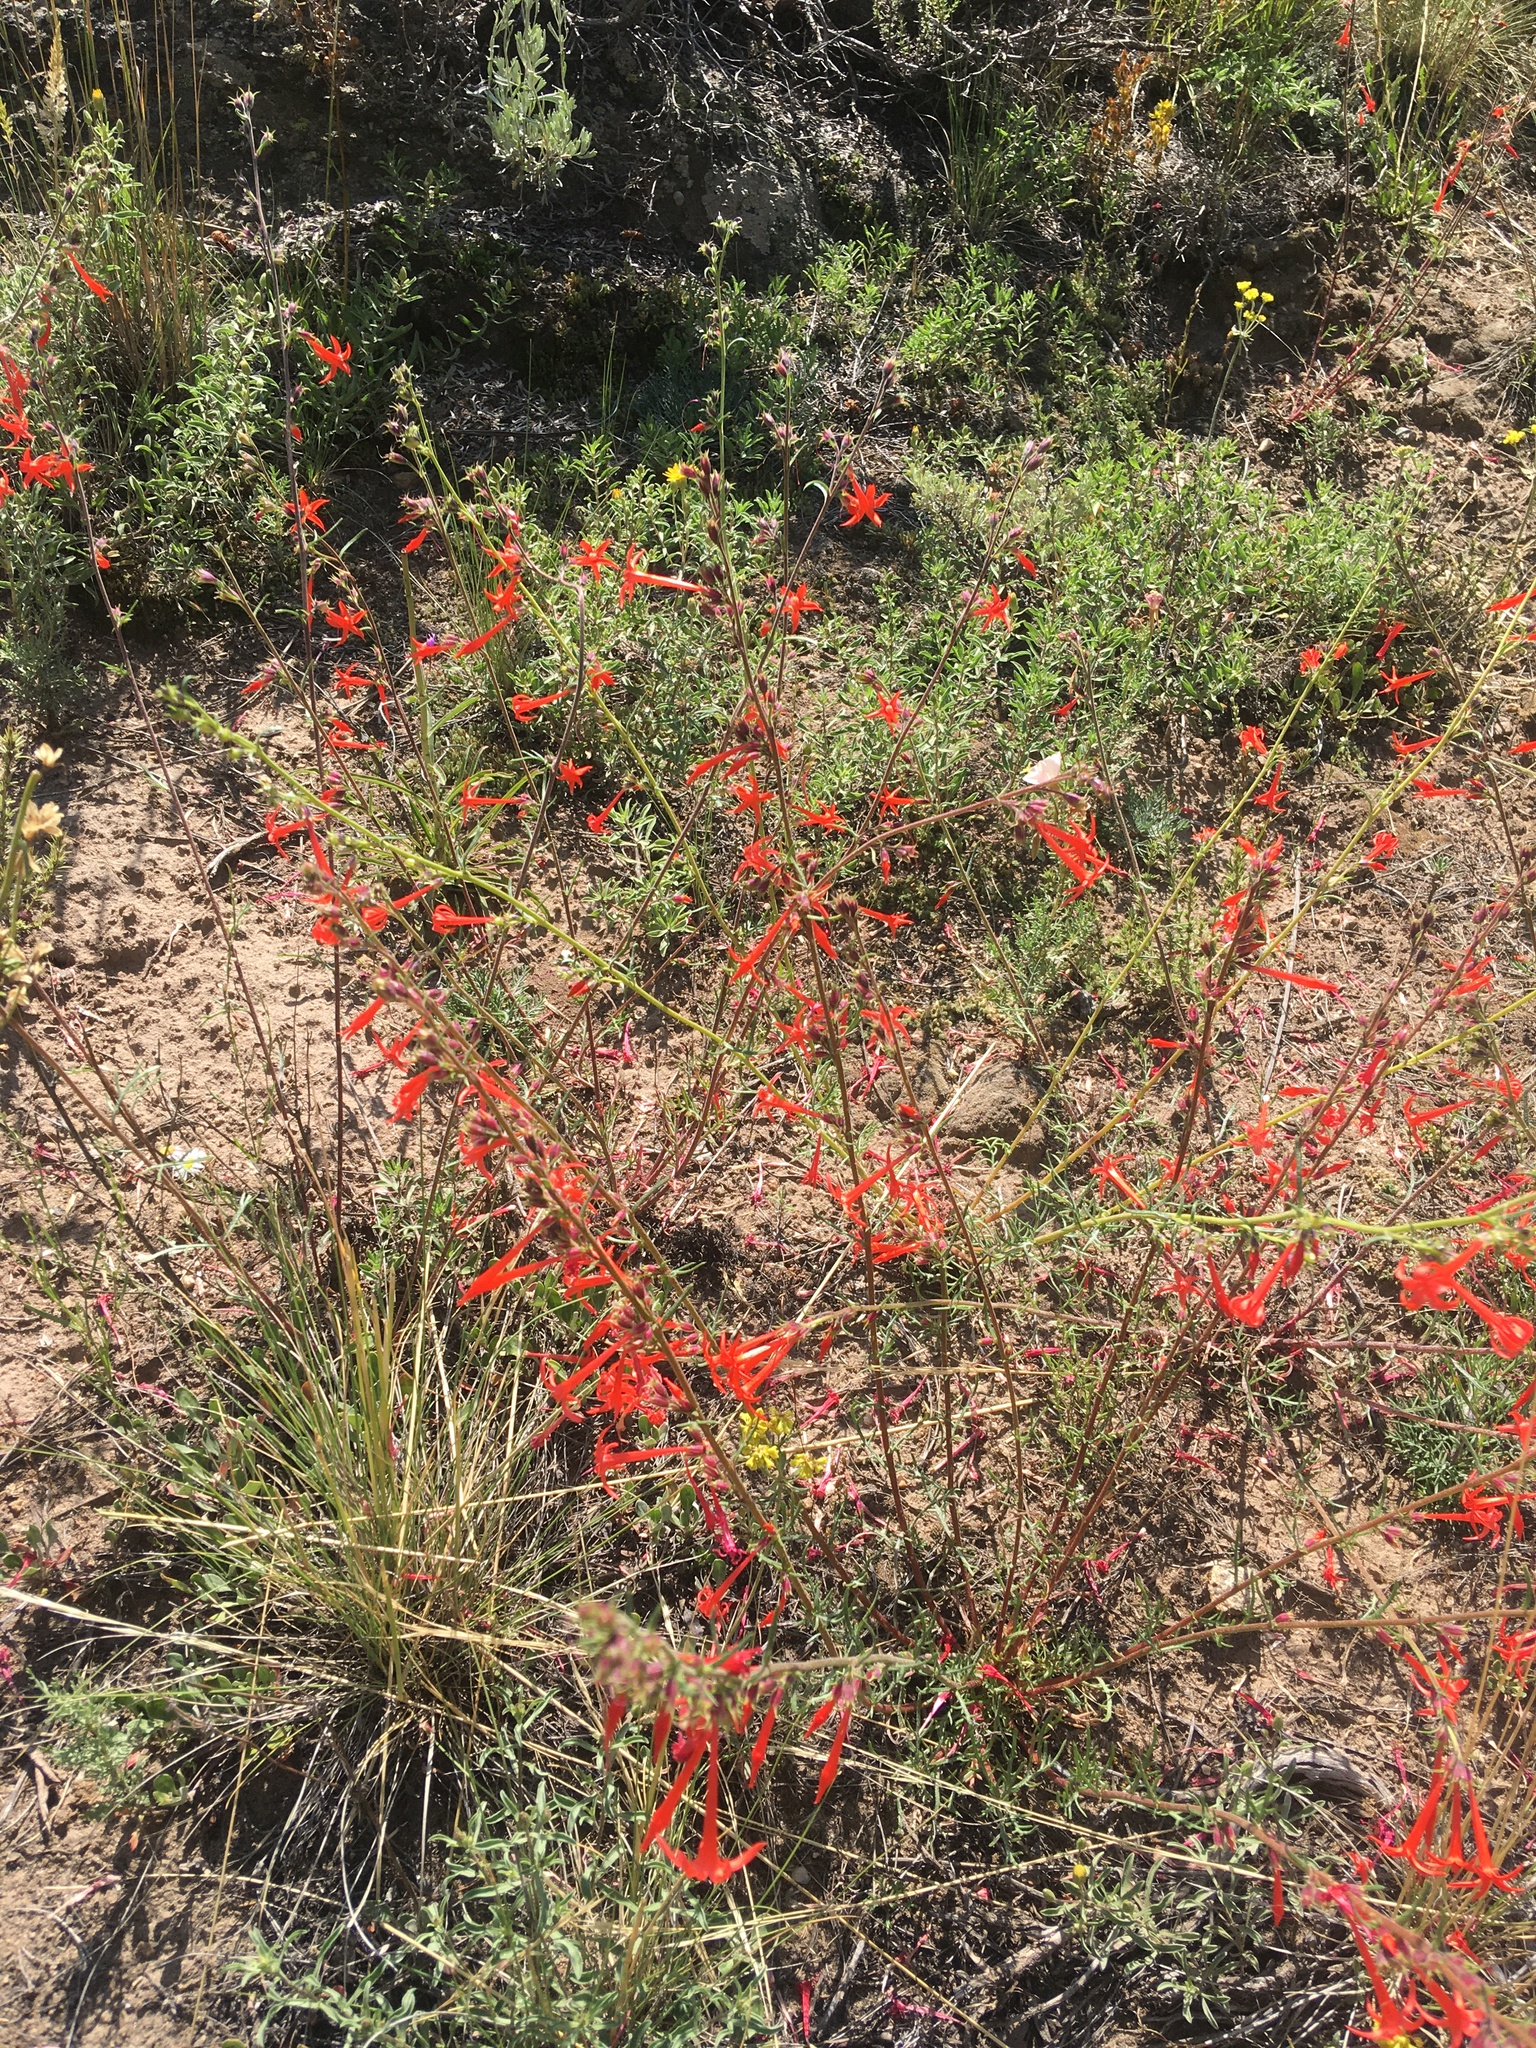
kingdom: Plantae
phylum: Tracheophyta
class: Magnoliopsida
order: Ericales
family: Polemoniaceae
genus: Ipomopsis
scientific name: Ipomopsis aggregata
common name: Scarlet gilia
